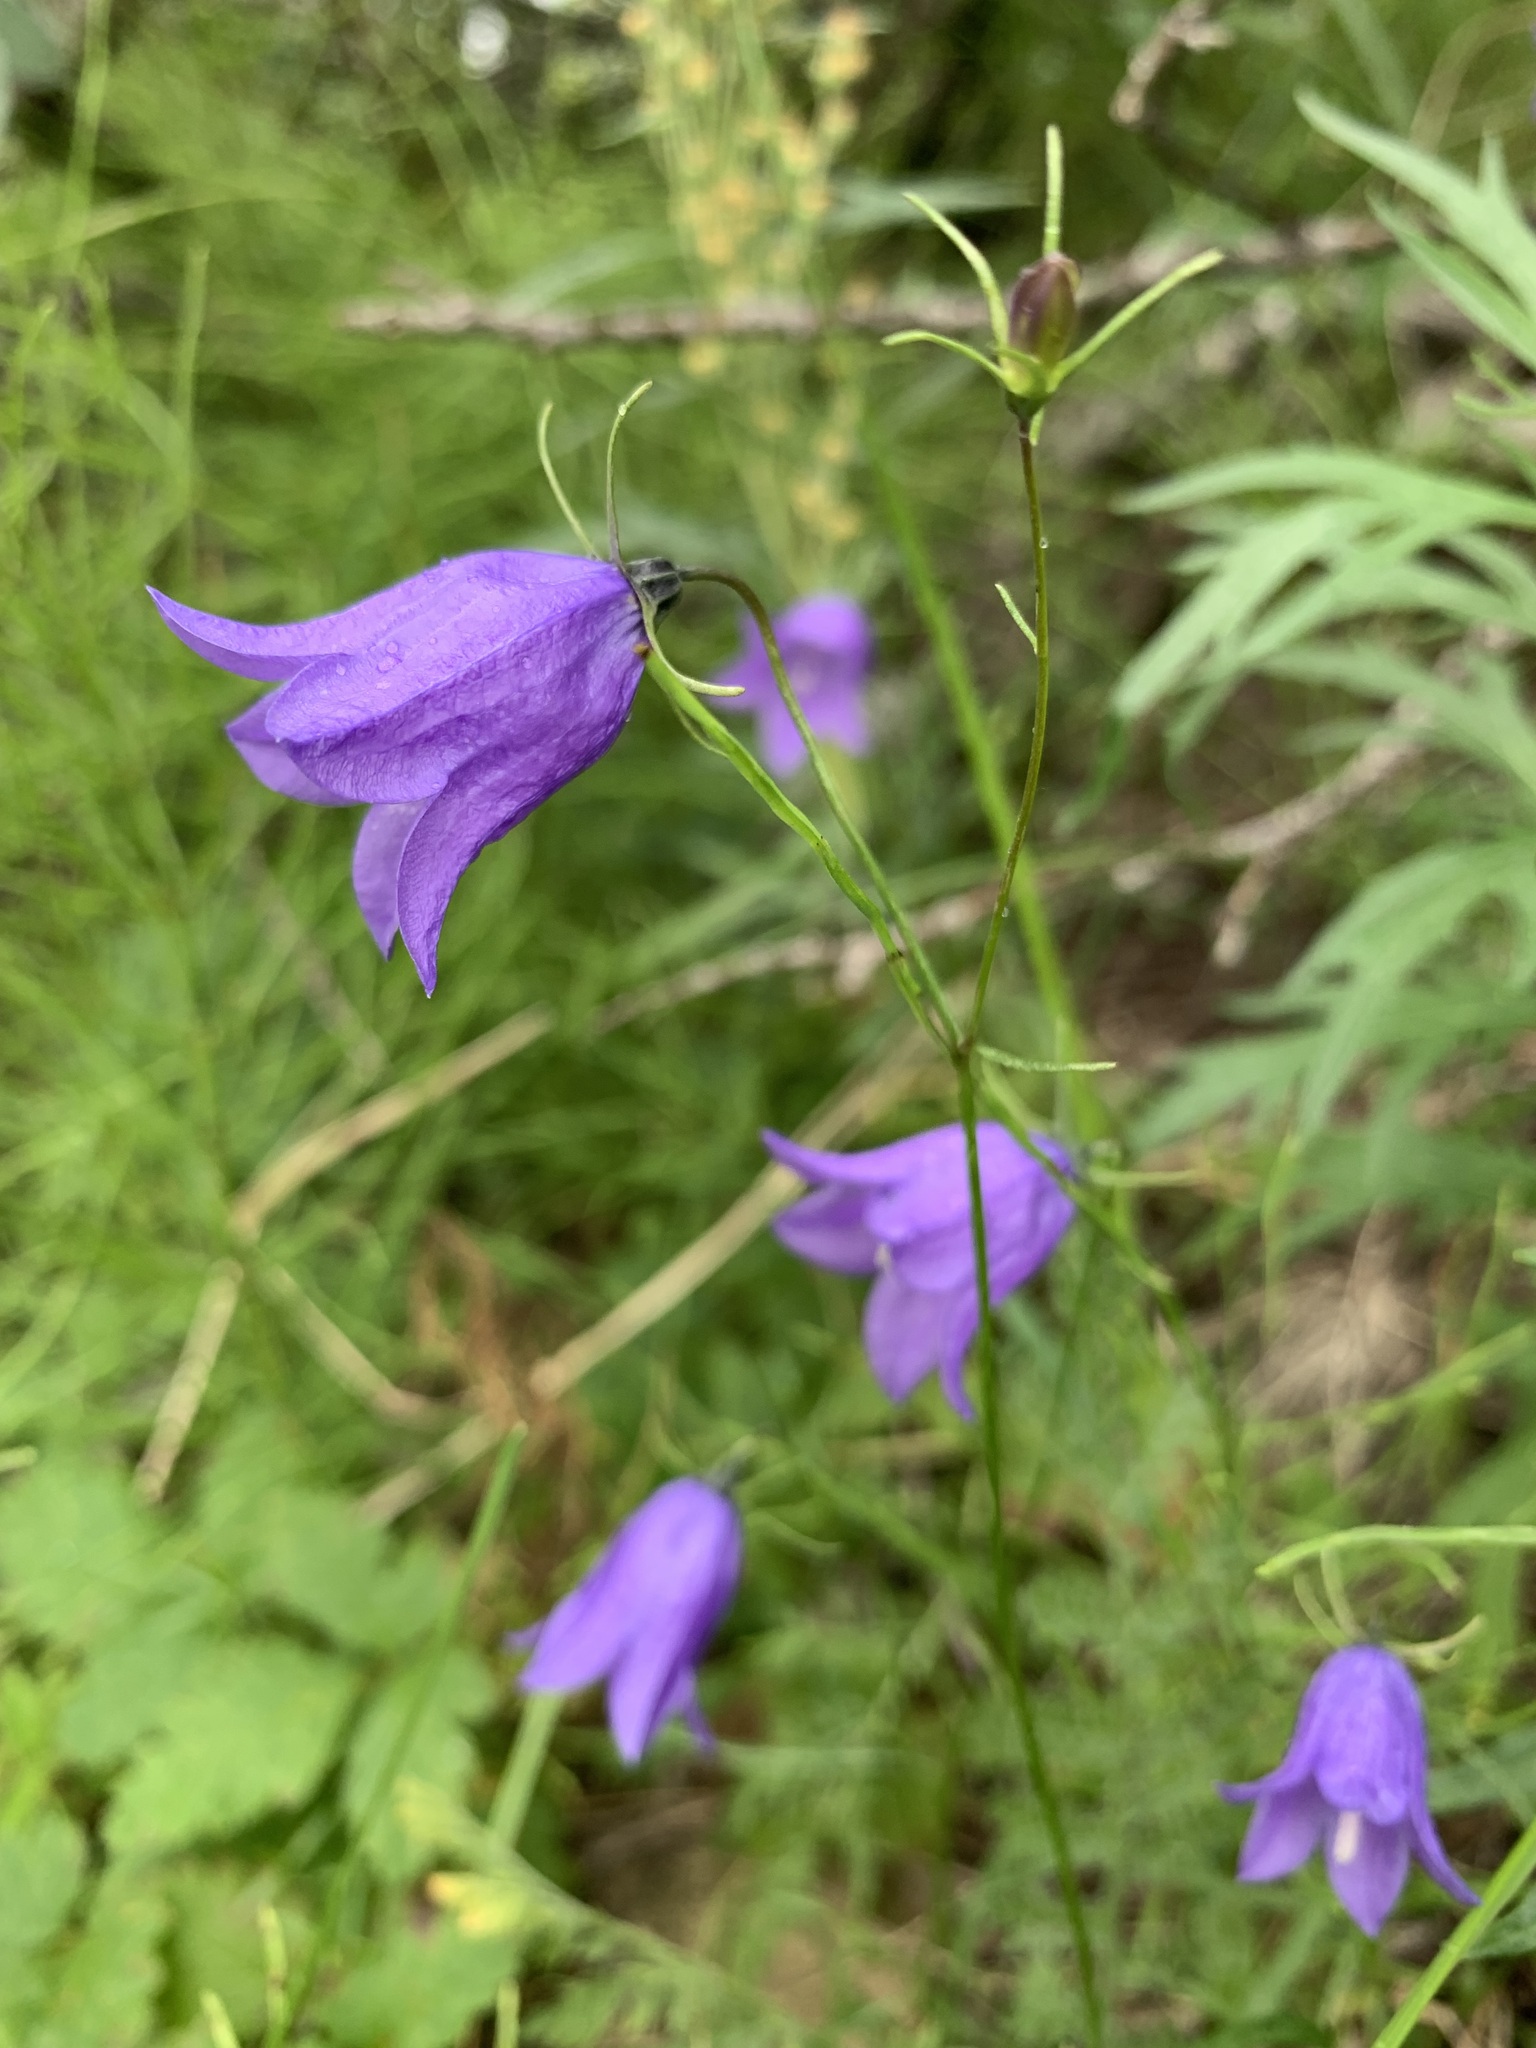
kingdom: Plantae
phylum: Tracheophyta
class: Magnoliopsida
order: Asterales
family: Campanulaceae
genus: Campanula
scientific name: Campanula rotundifolia
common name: Harebell
